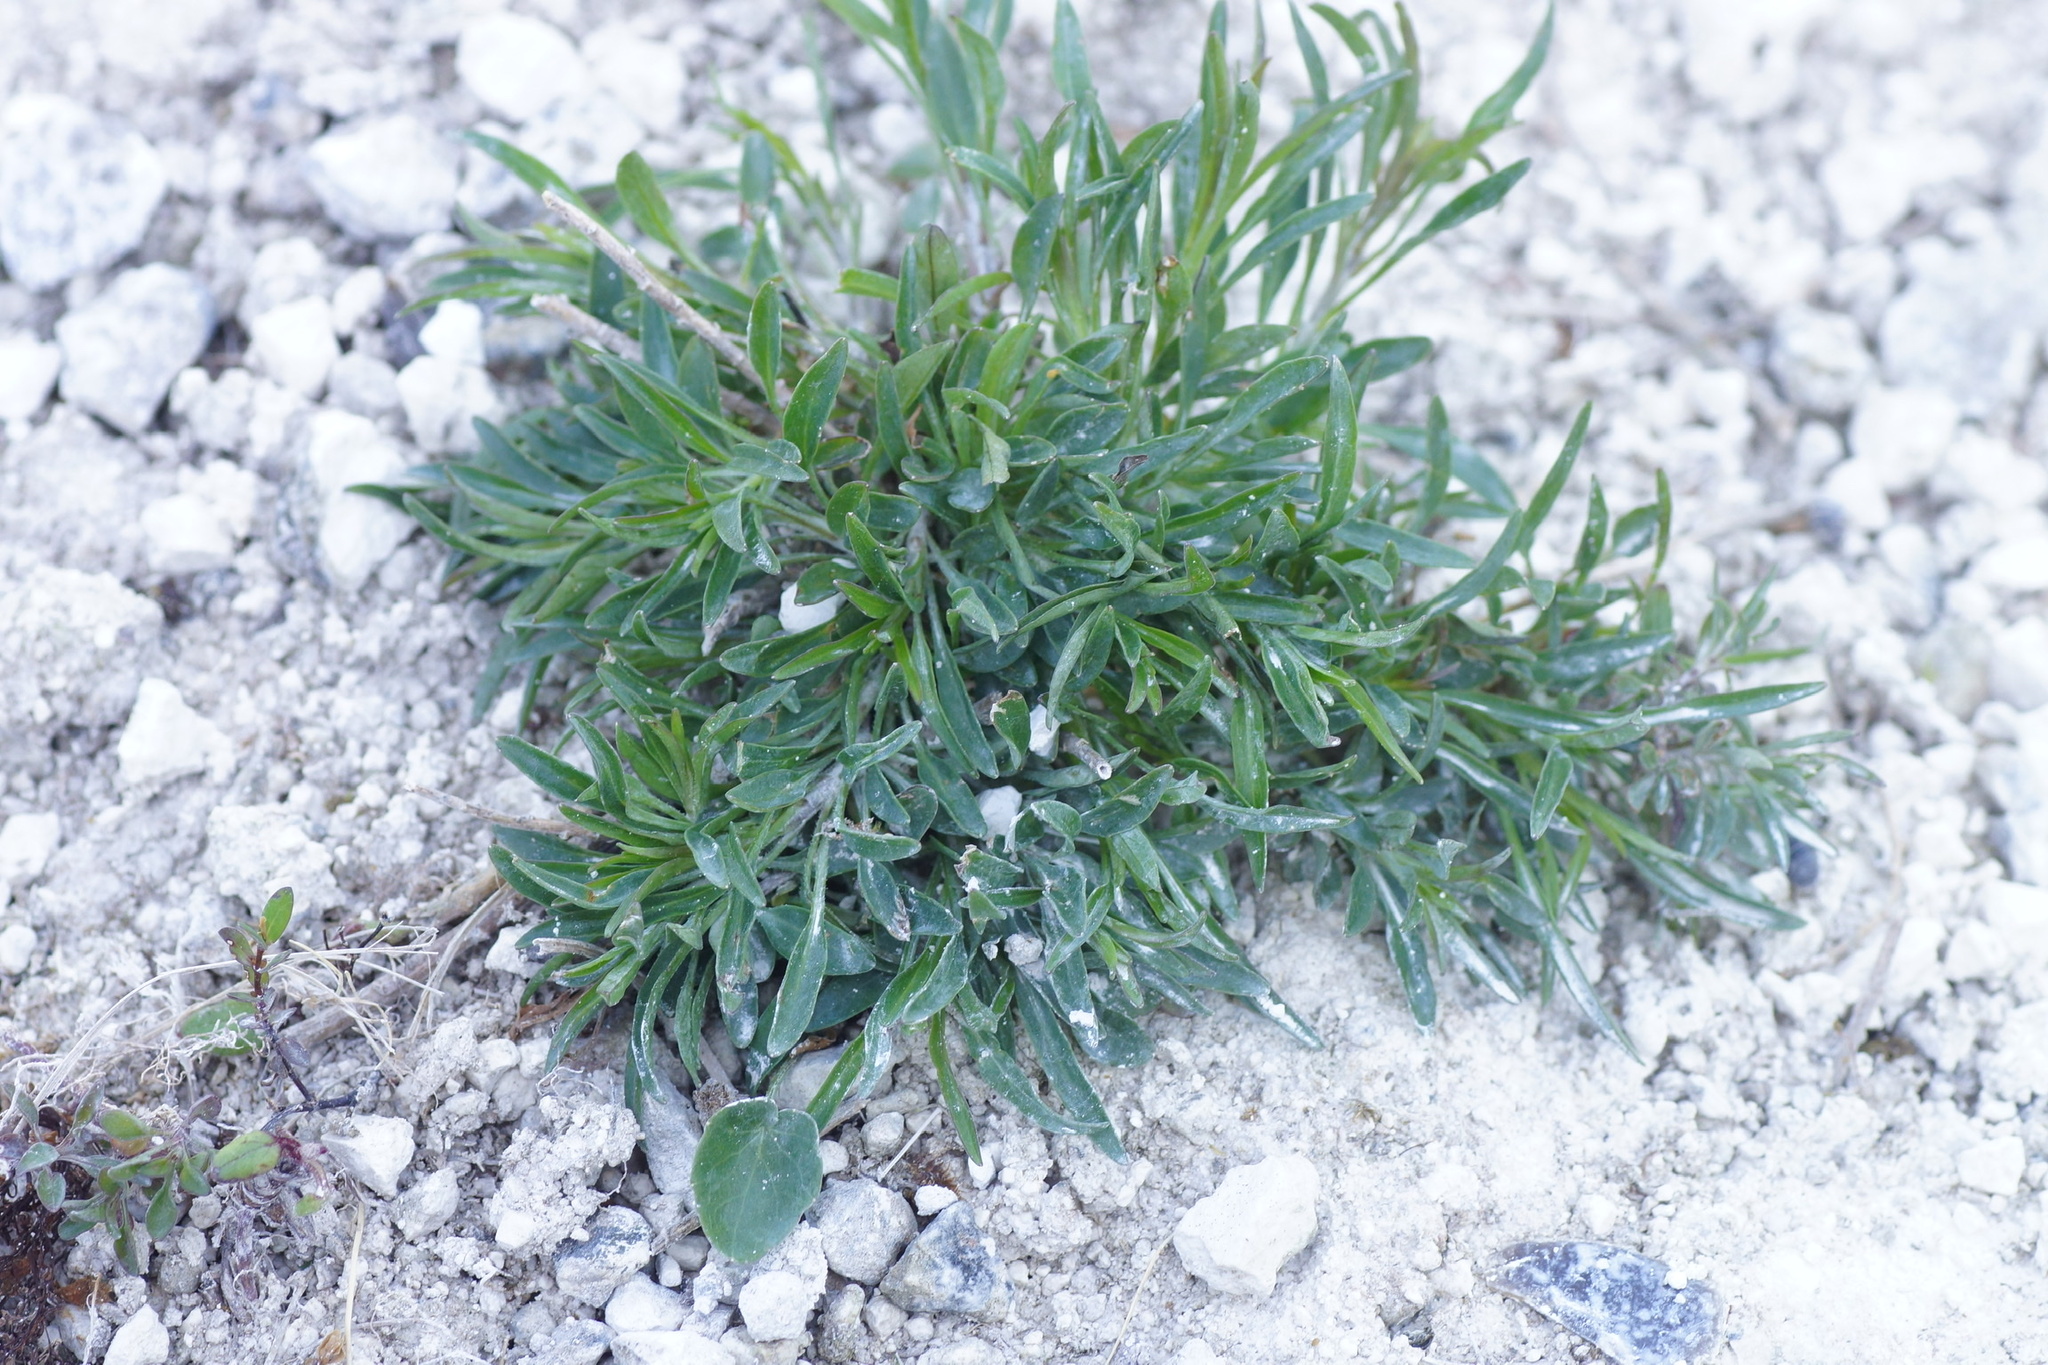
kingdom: Plantae
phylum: Tracheophyta
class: Magnoliopsida
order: Asterales
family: Campanulaceae
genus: Campanula
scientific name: Campanula rotundifolia
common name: Harebell
